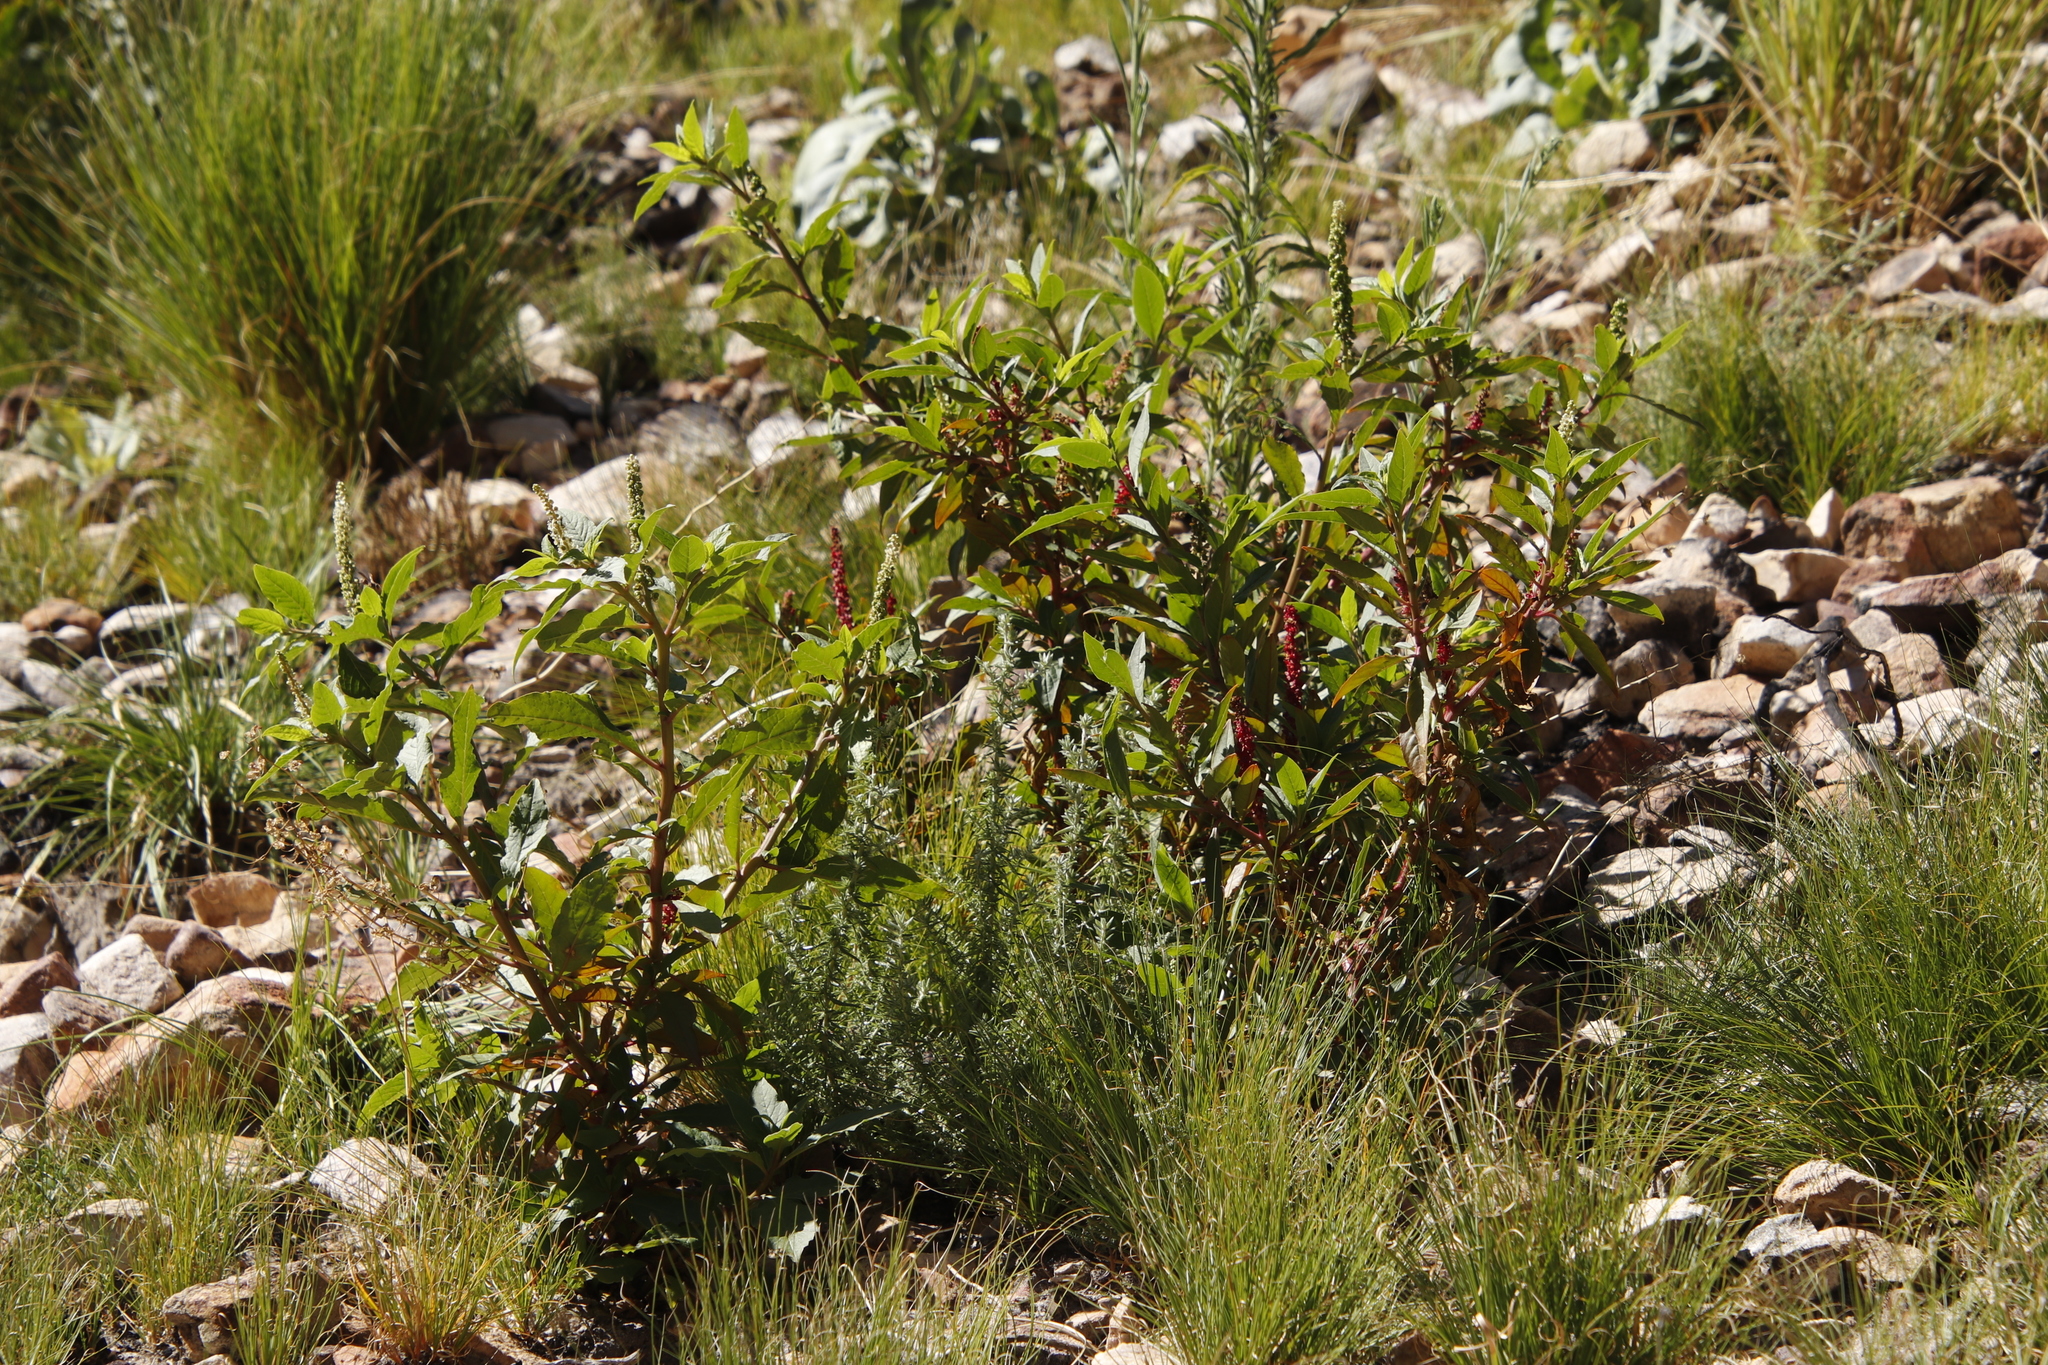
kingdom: Plantae
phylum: Tracheophyta
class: Magnoliopsida
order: Caryophyllales
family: Phytolaccaceae
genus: Phytolacca
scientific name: Phytolacca icosandra
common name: Button pokeweed
